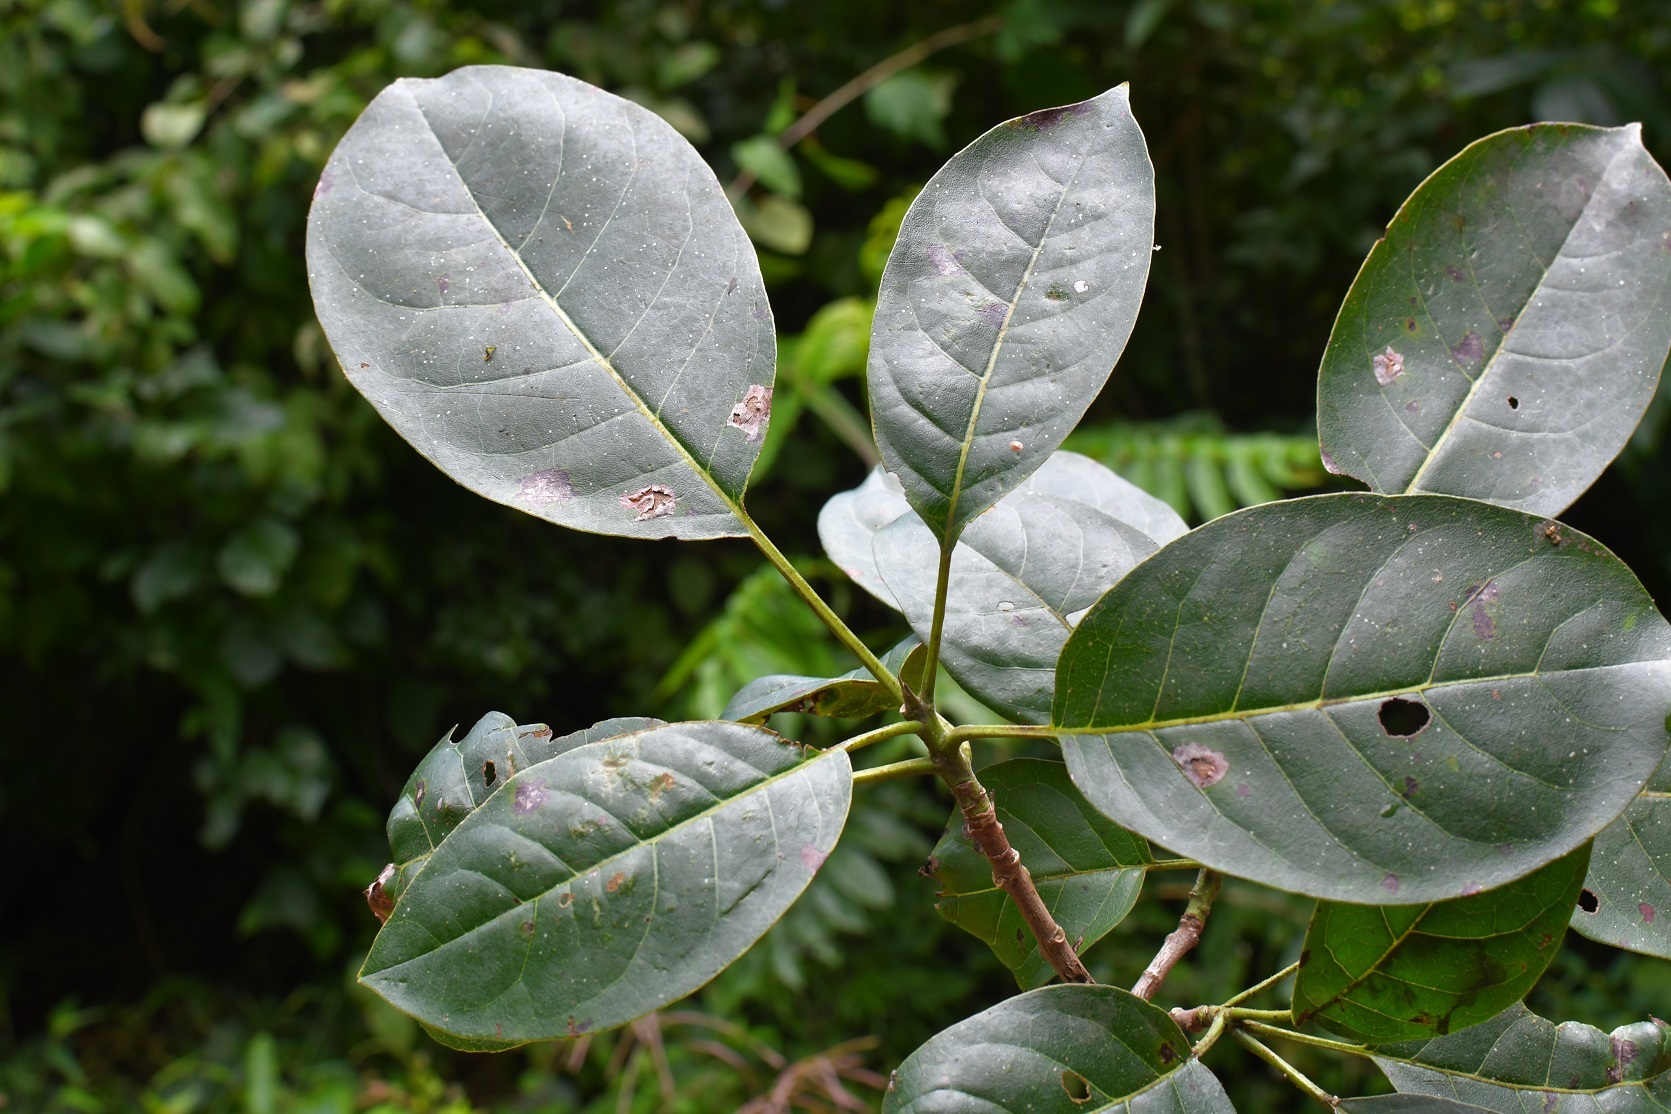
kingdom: Plantae
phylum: Tracheophyta
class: Magnoliopsida
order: Boraginales
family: Ehretiaceae
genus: Bourreria
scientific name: Bourreria huanita
